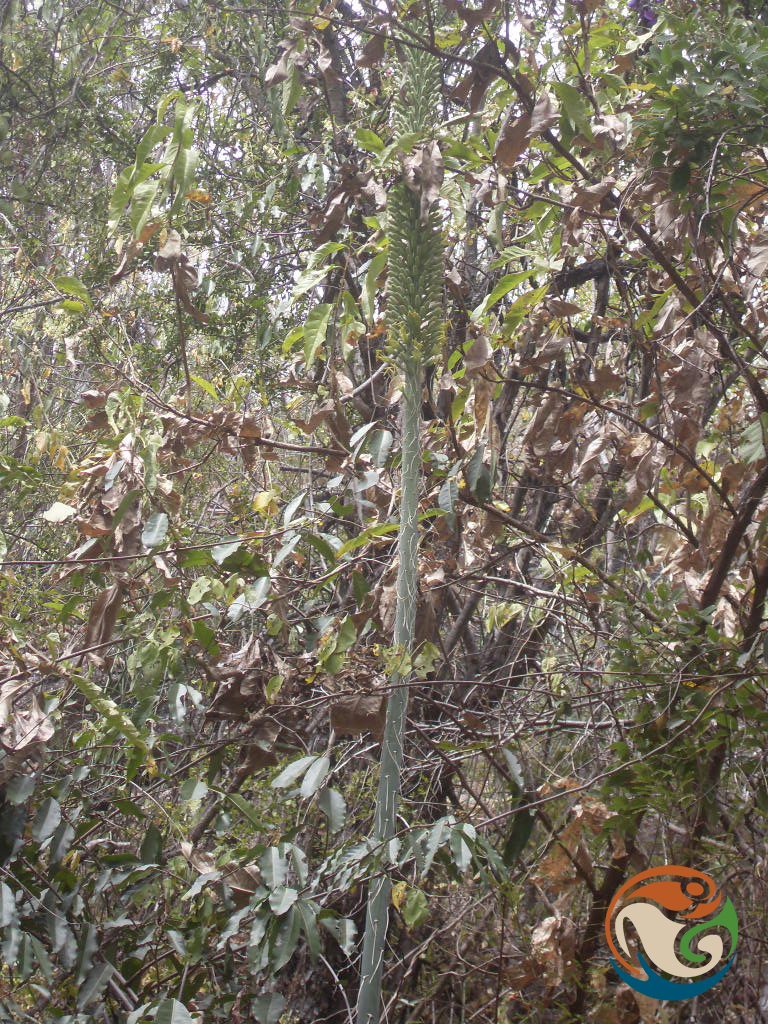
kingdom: Plantae
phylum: Tracheophyta
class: Liliopsida
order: Asparagales
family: Asparagaceae
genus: Agave
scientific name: Agave angustiarum
